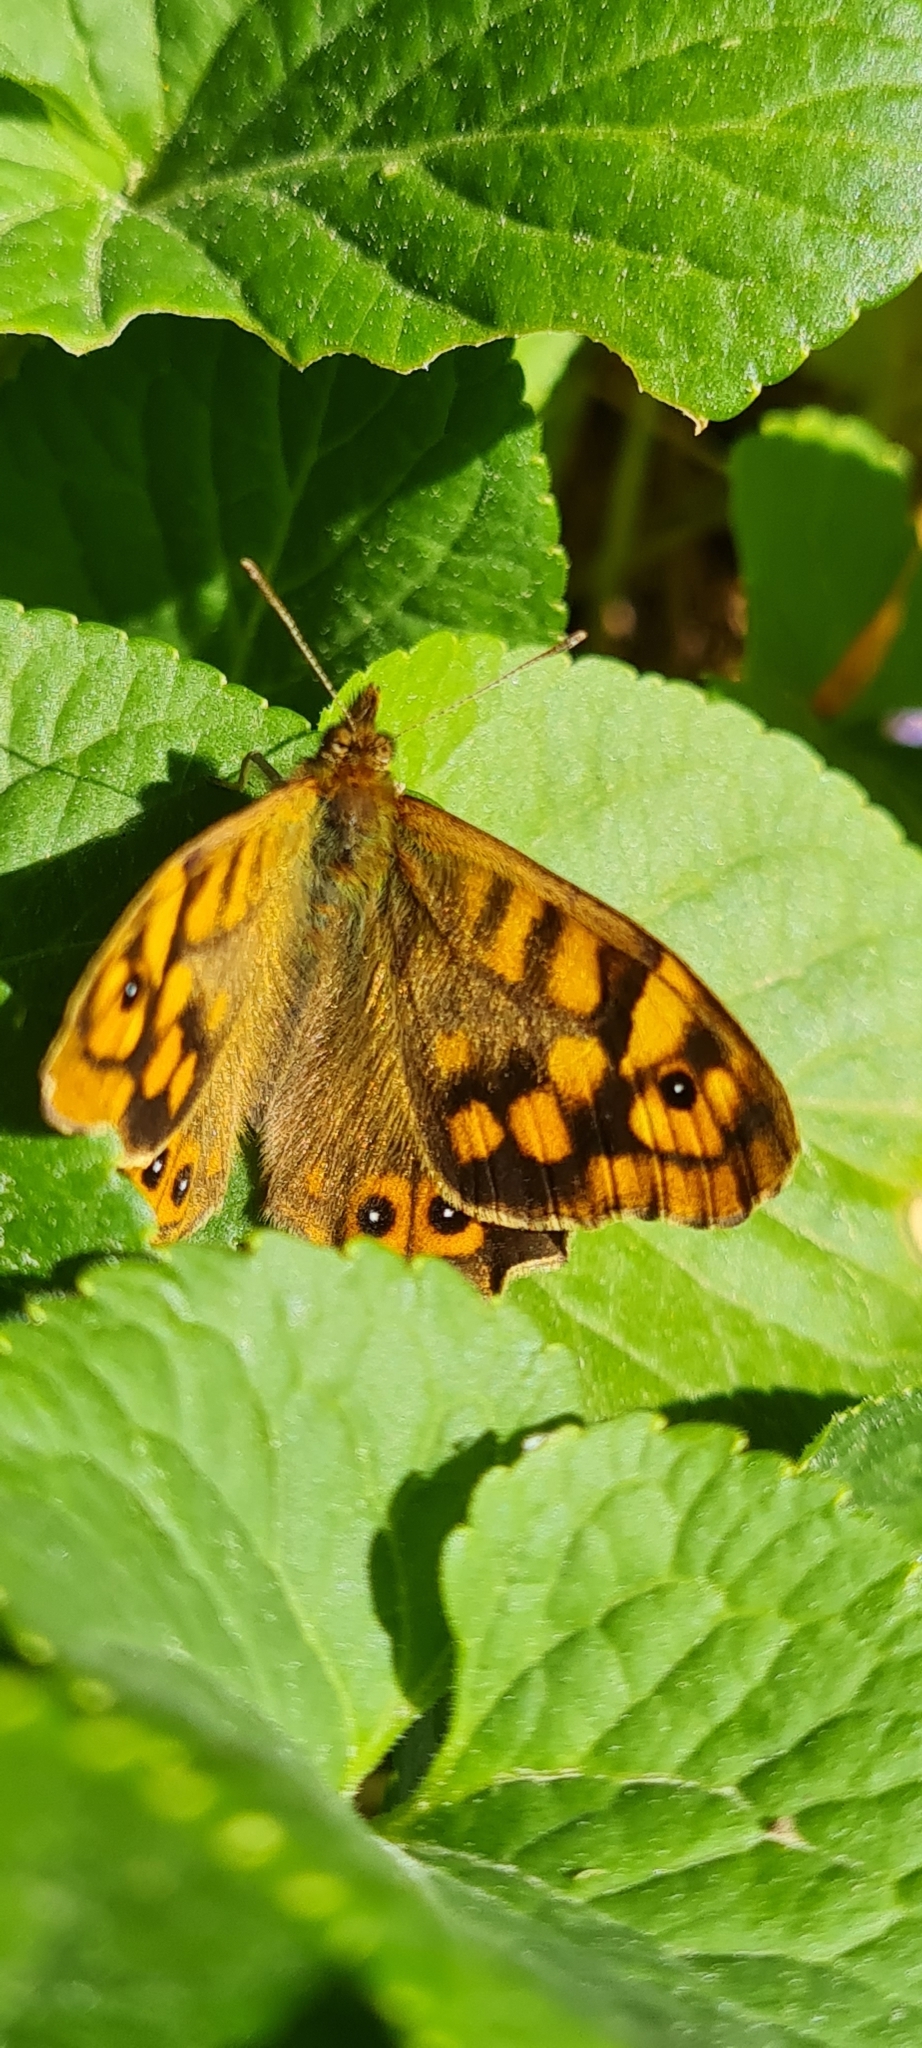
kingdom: Animalia
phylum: Arthropoda
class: Insecta
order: Lepidoptera
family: Nymphalidae
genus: Pararge
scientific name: Pararge aegeria
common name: Speckled wood
